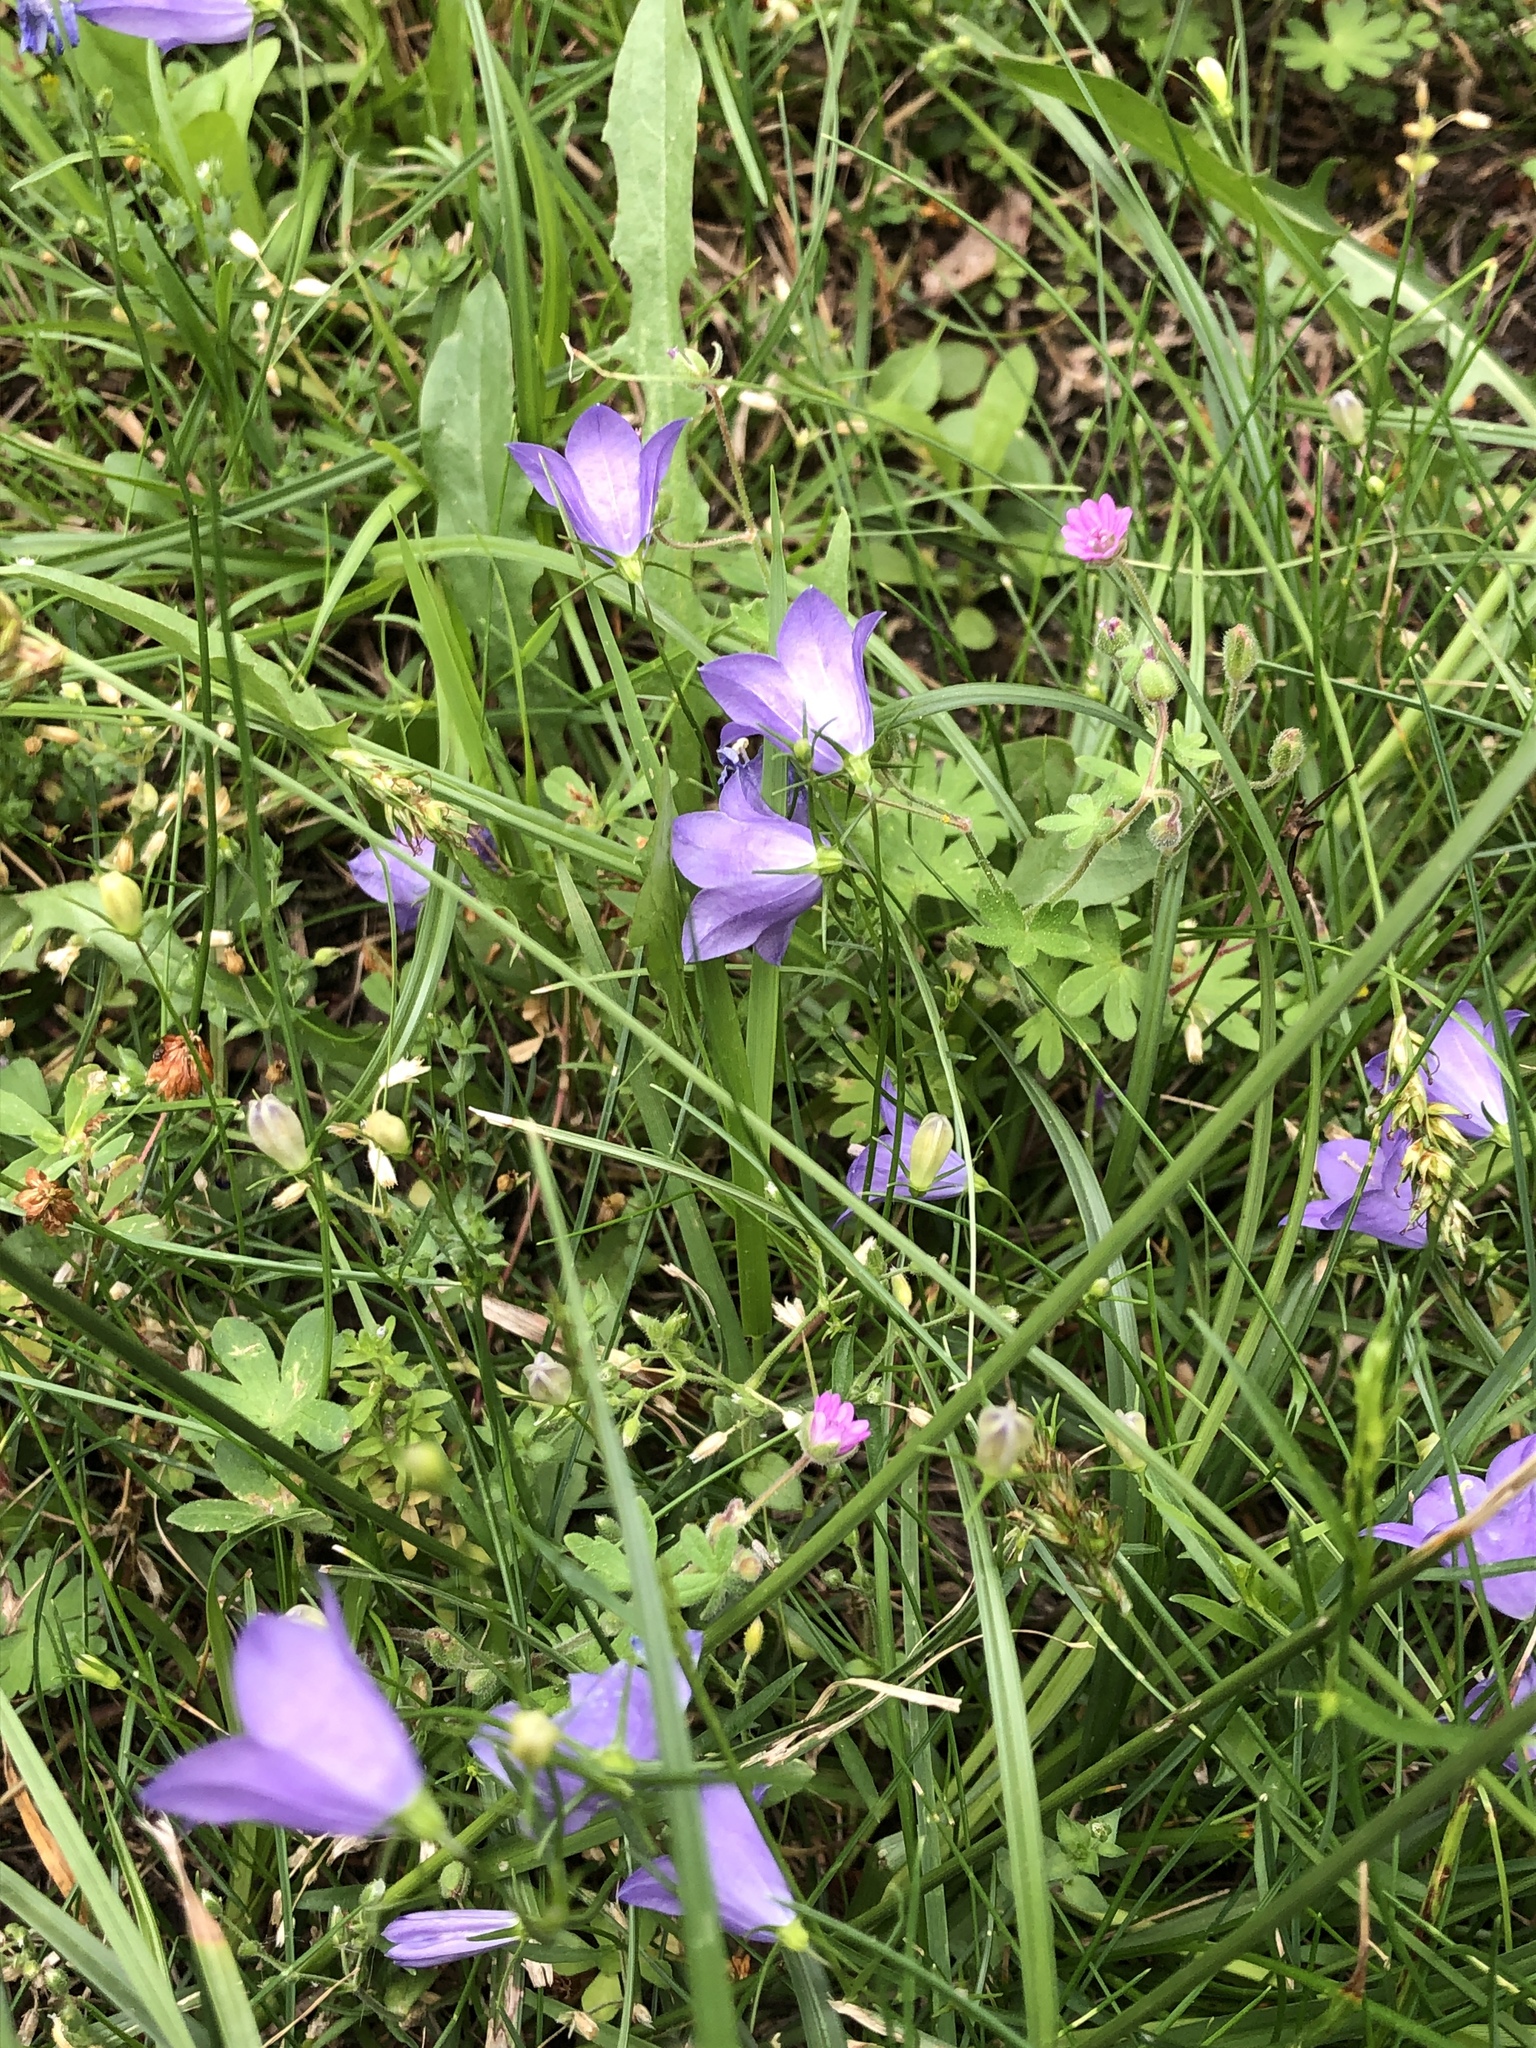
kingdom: Plantae
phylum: Tracheophyta
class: Magnoliopsida
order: Asterales
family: Campanulaceae
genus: Campanula
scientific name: Campanula rotundifolia
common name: Harebell
